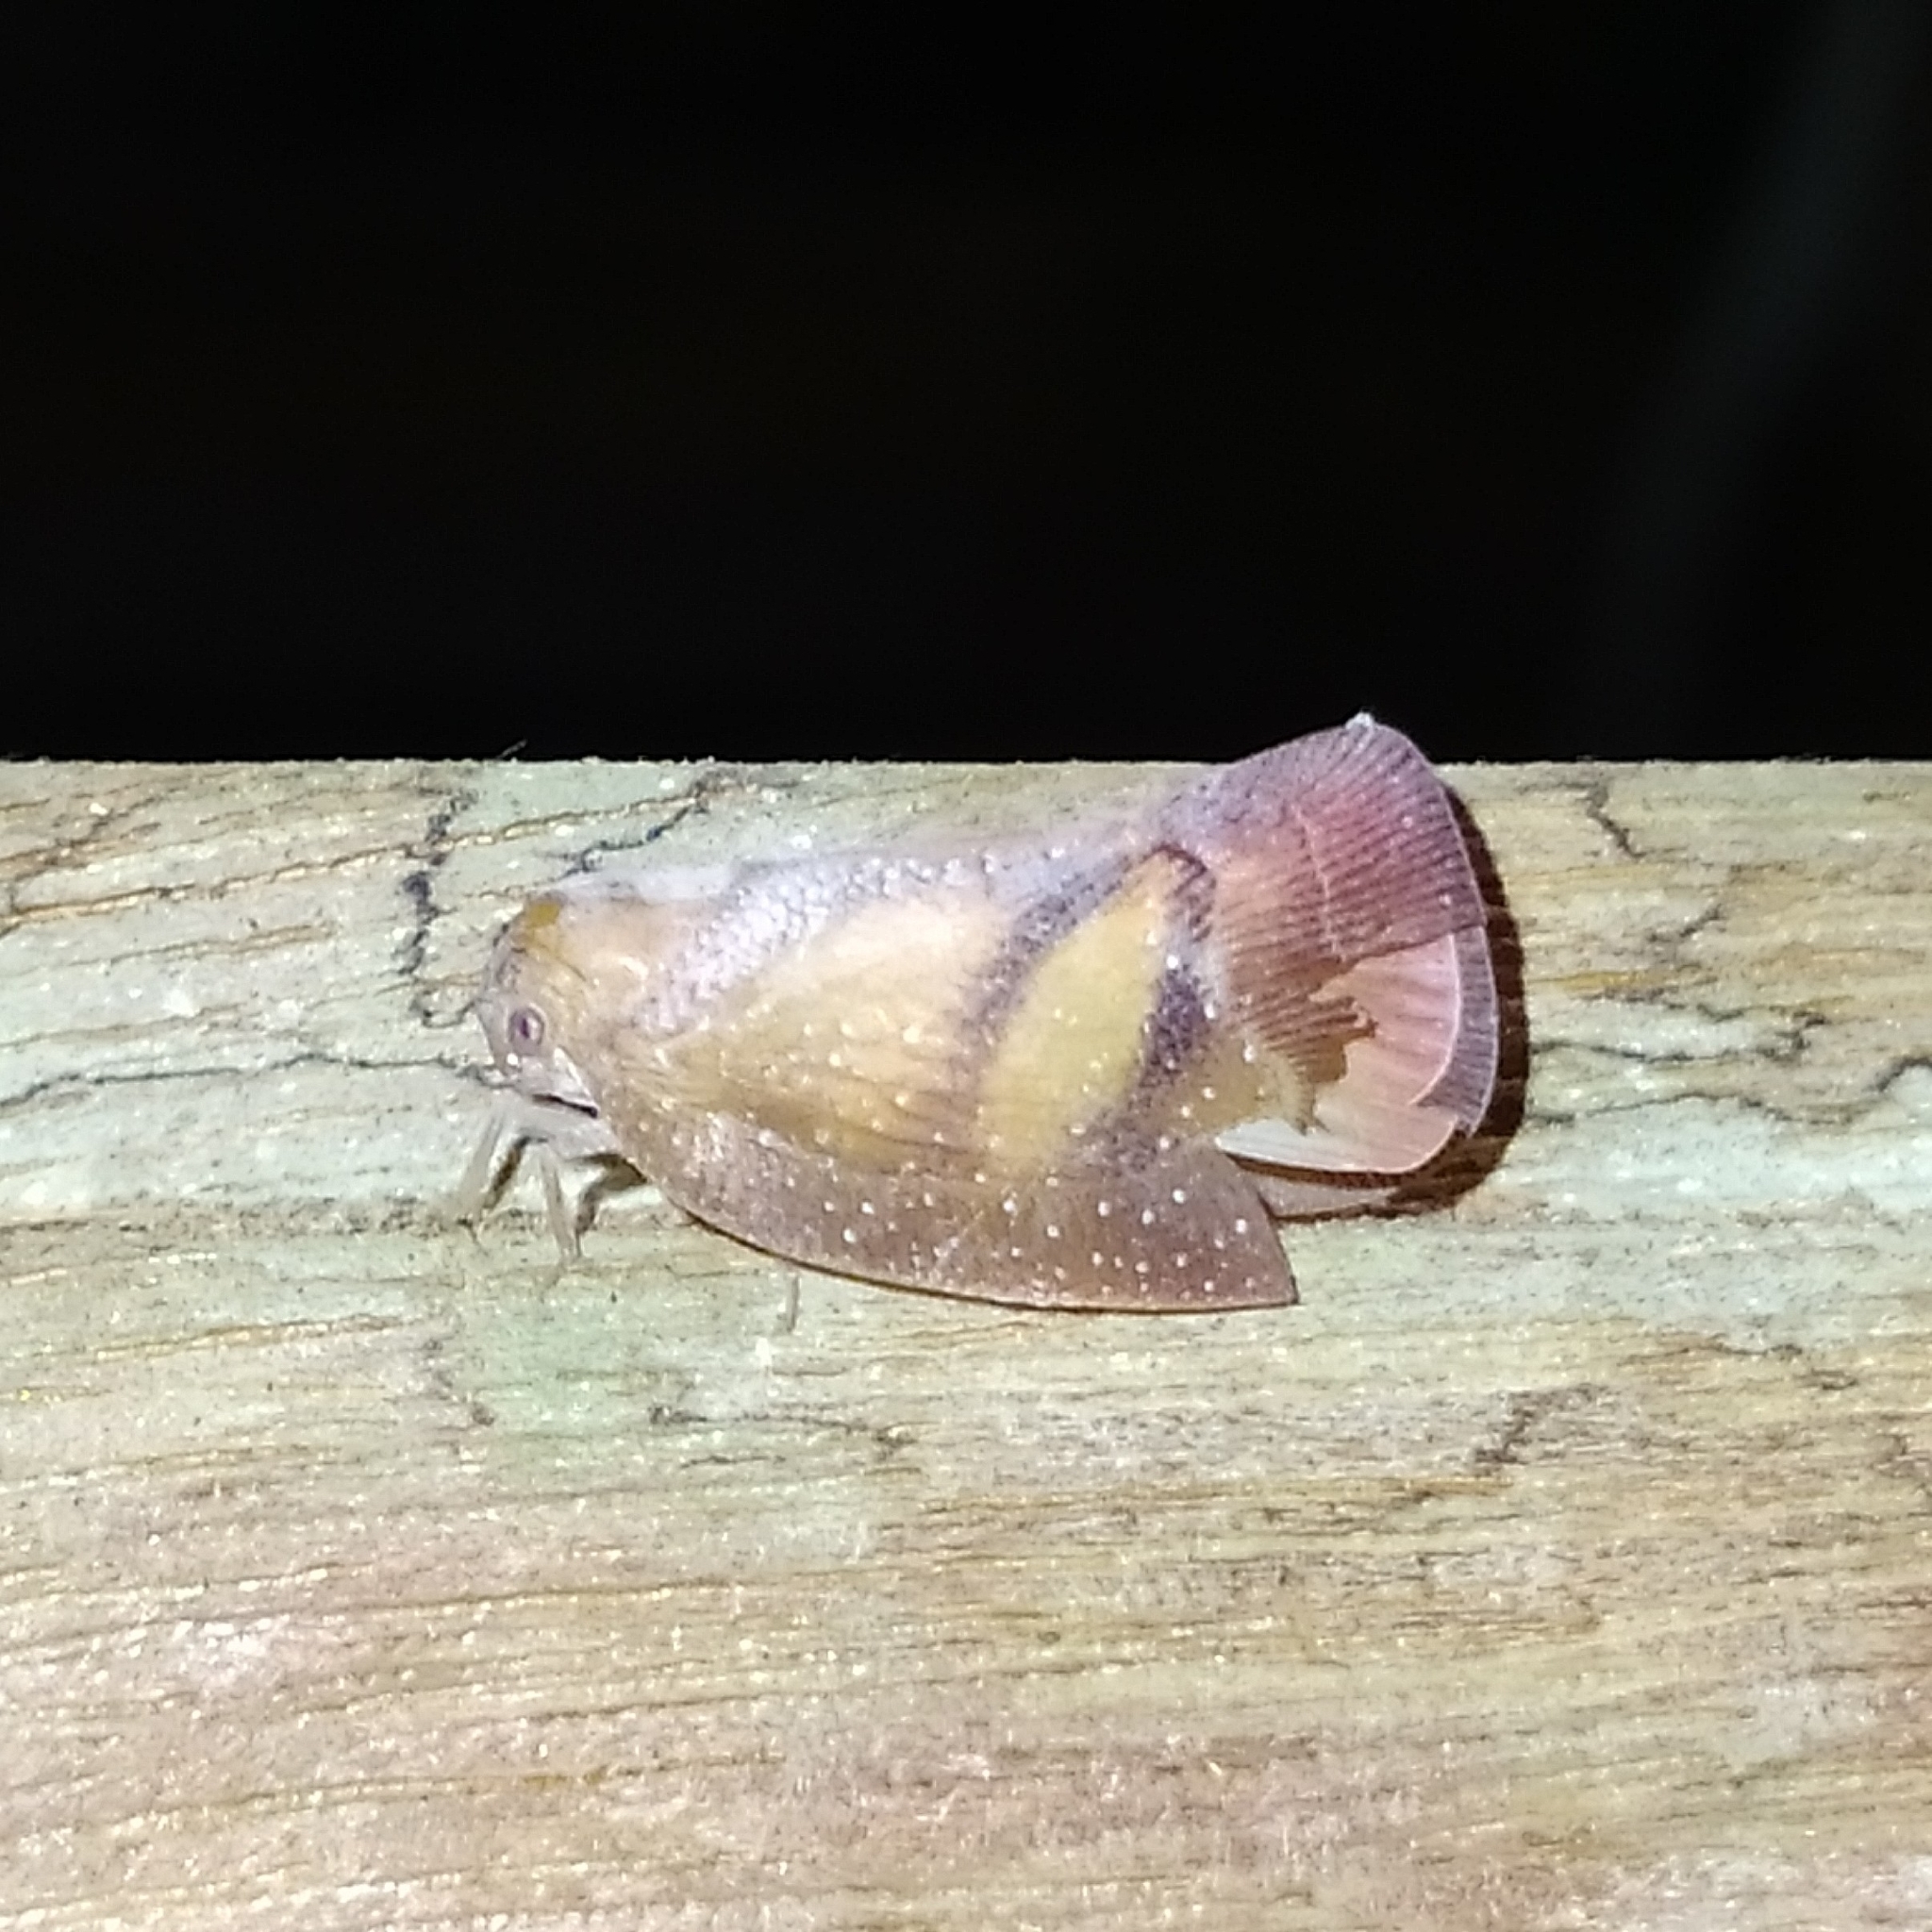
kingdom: Animalia
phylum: Arthropoda
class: Insecta
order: Hemiptera
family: Flatidae
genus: Ormenis
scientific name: Ormenis antoniae
